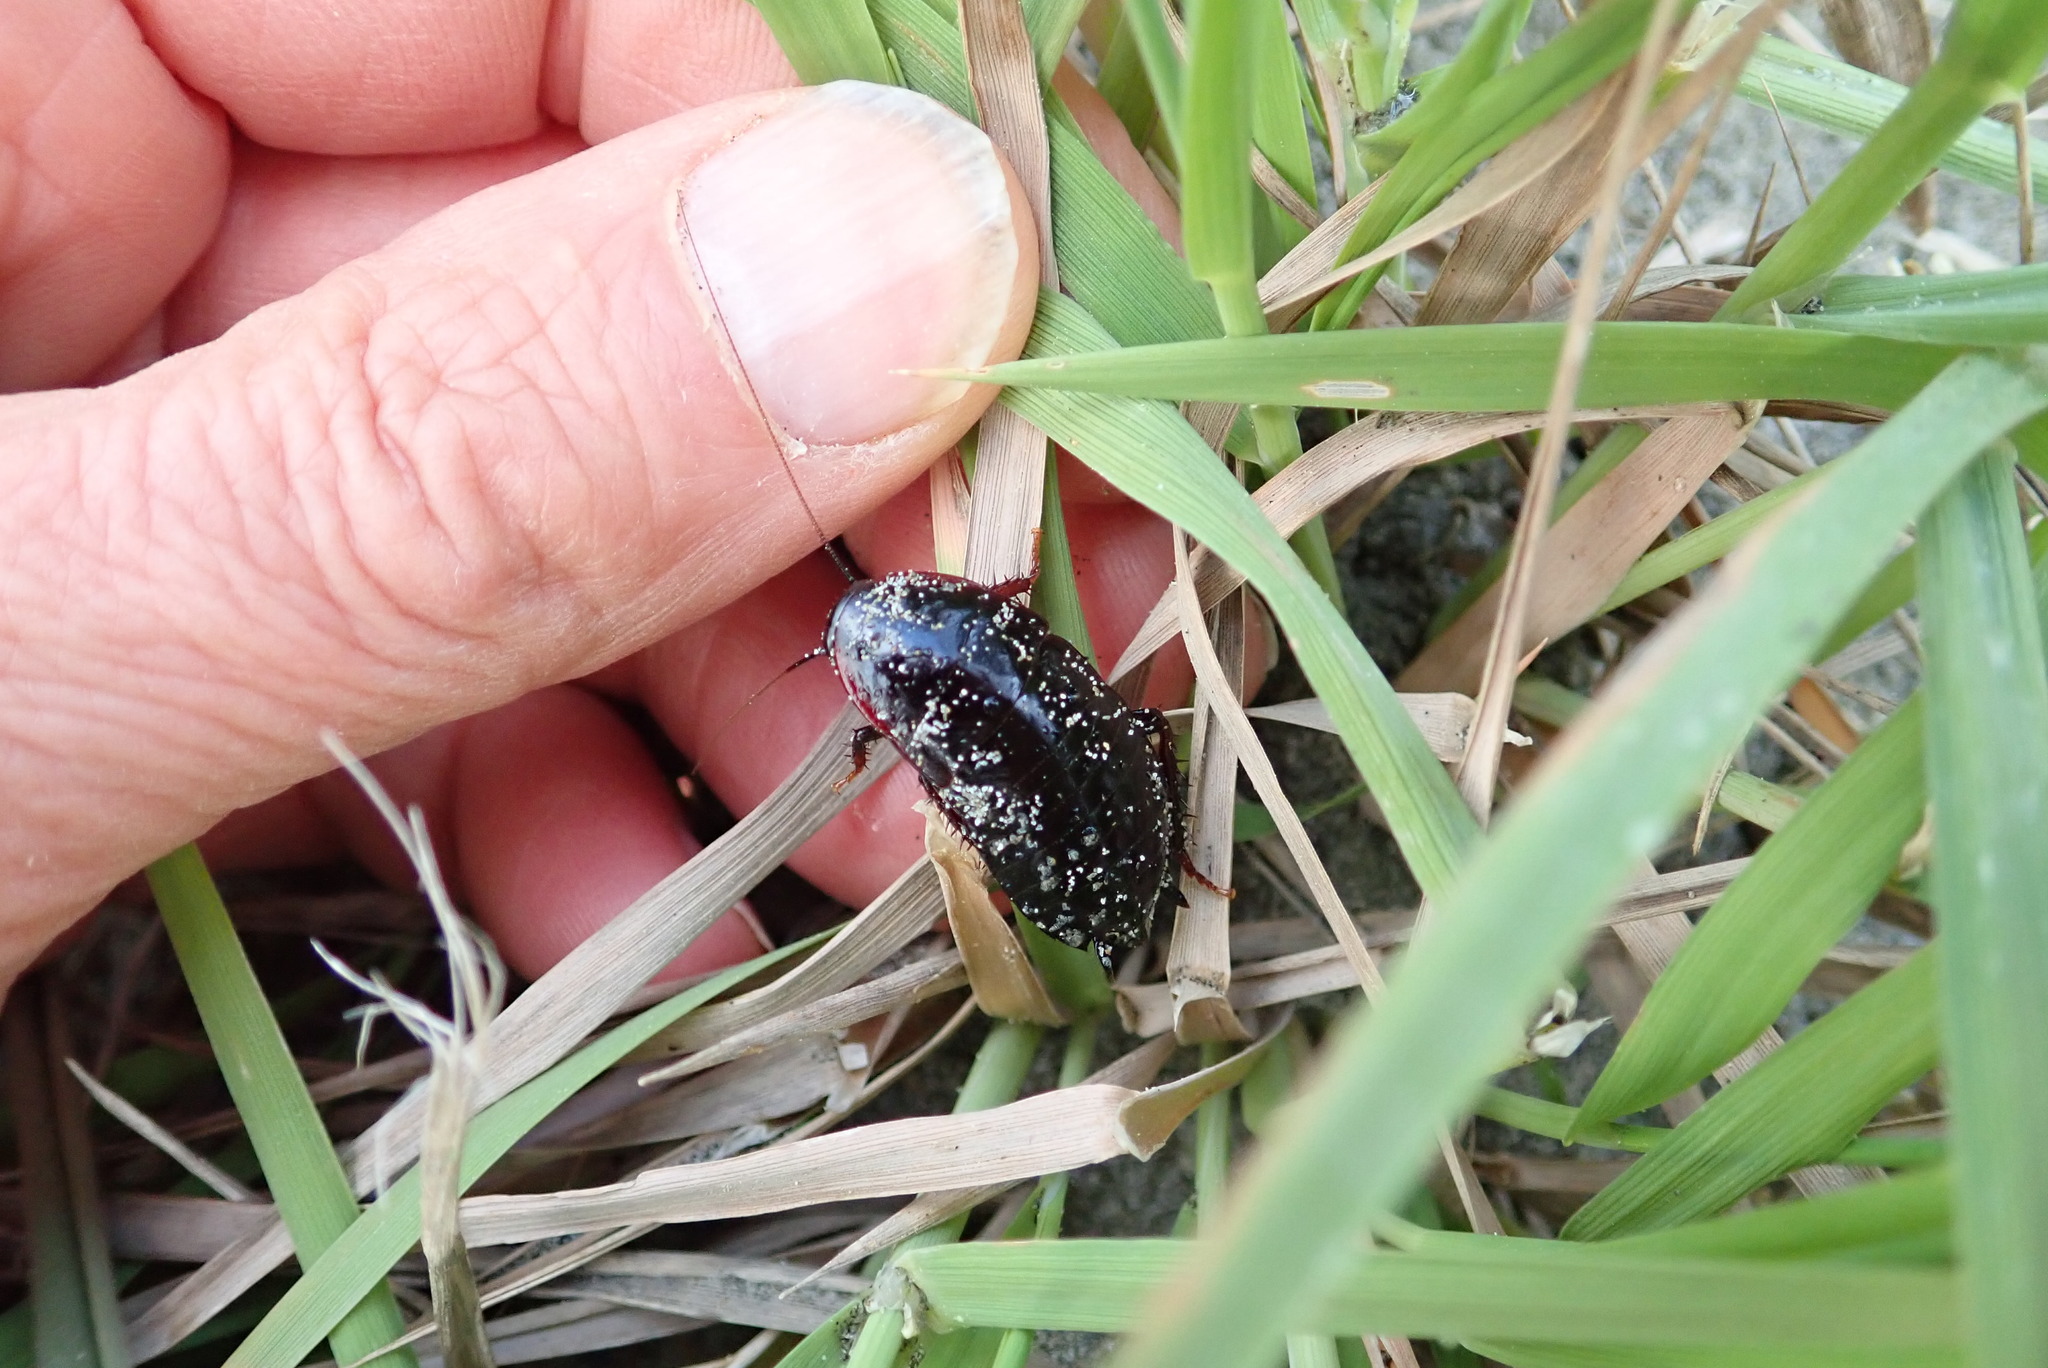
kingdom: Animalia
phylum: Arthropoda
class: Insecta
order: Blattodea
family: Blattidae
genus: Maoriblatta
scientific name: Maoriblatta novaeseelandiae
